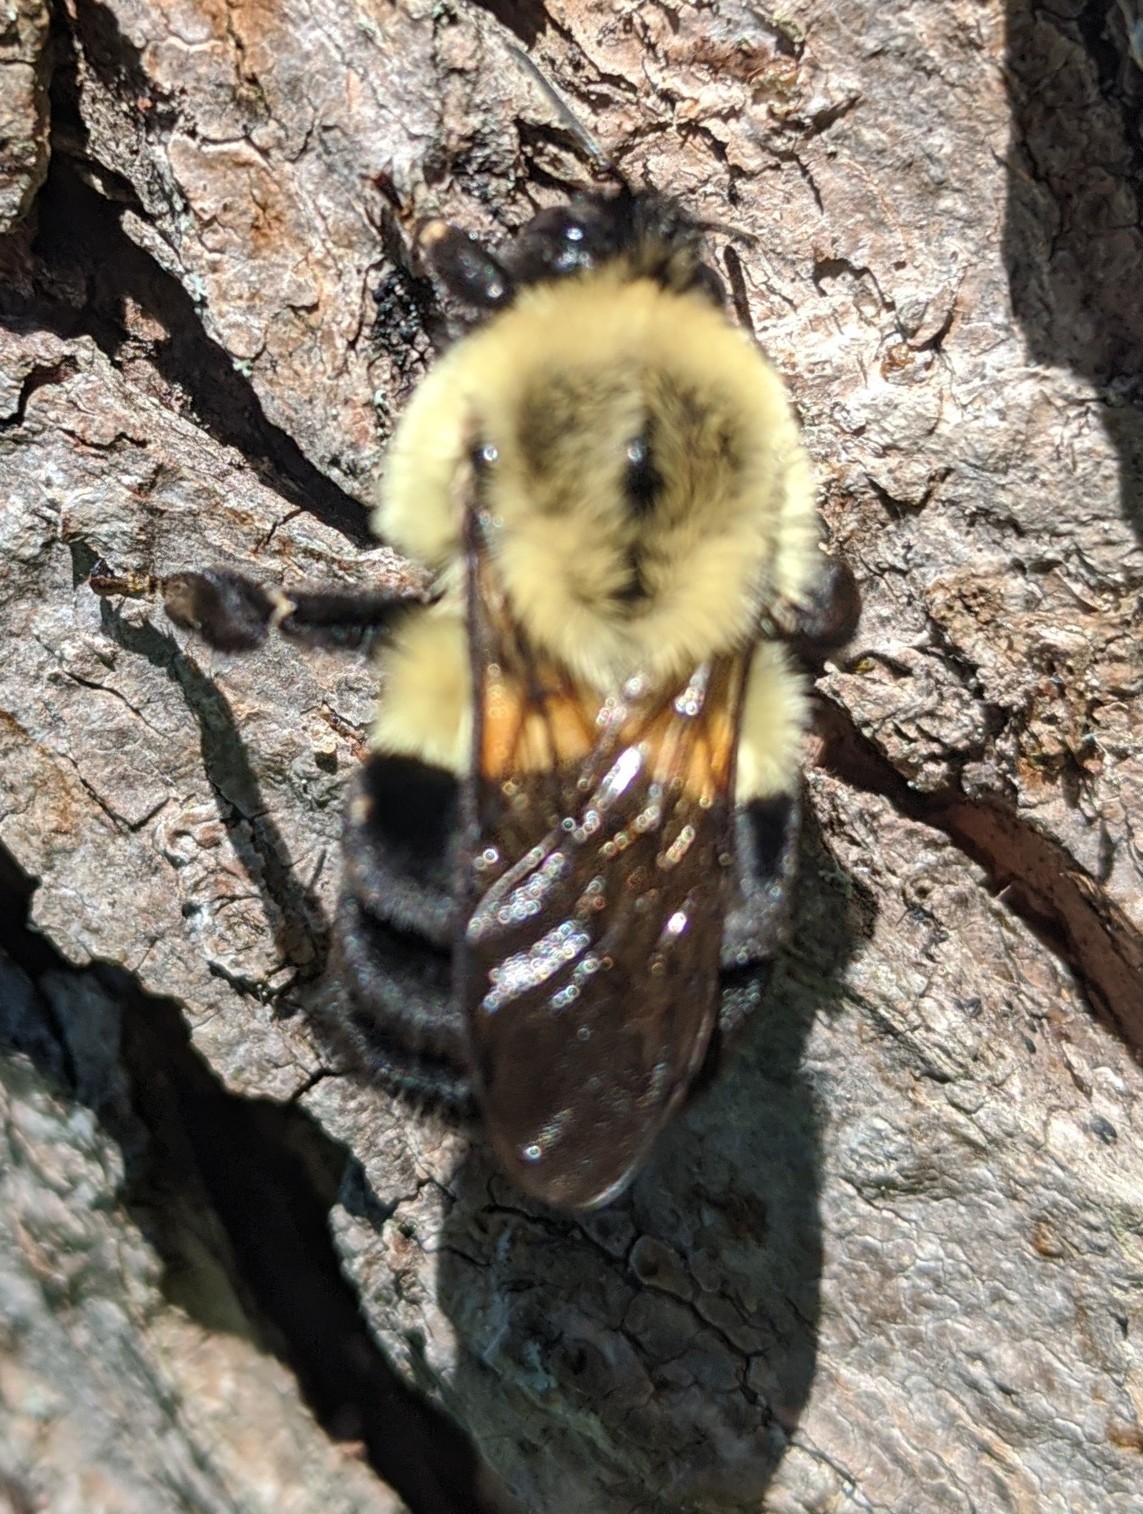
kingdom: Animalia
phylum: Arthropoda
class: Insecta
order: Hymenoptera
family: Apidae
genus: Bombus
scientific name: Bombus impatiens
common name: Common eastern bumble bee
